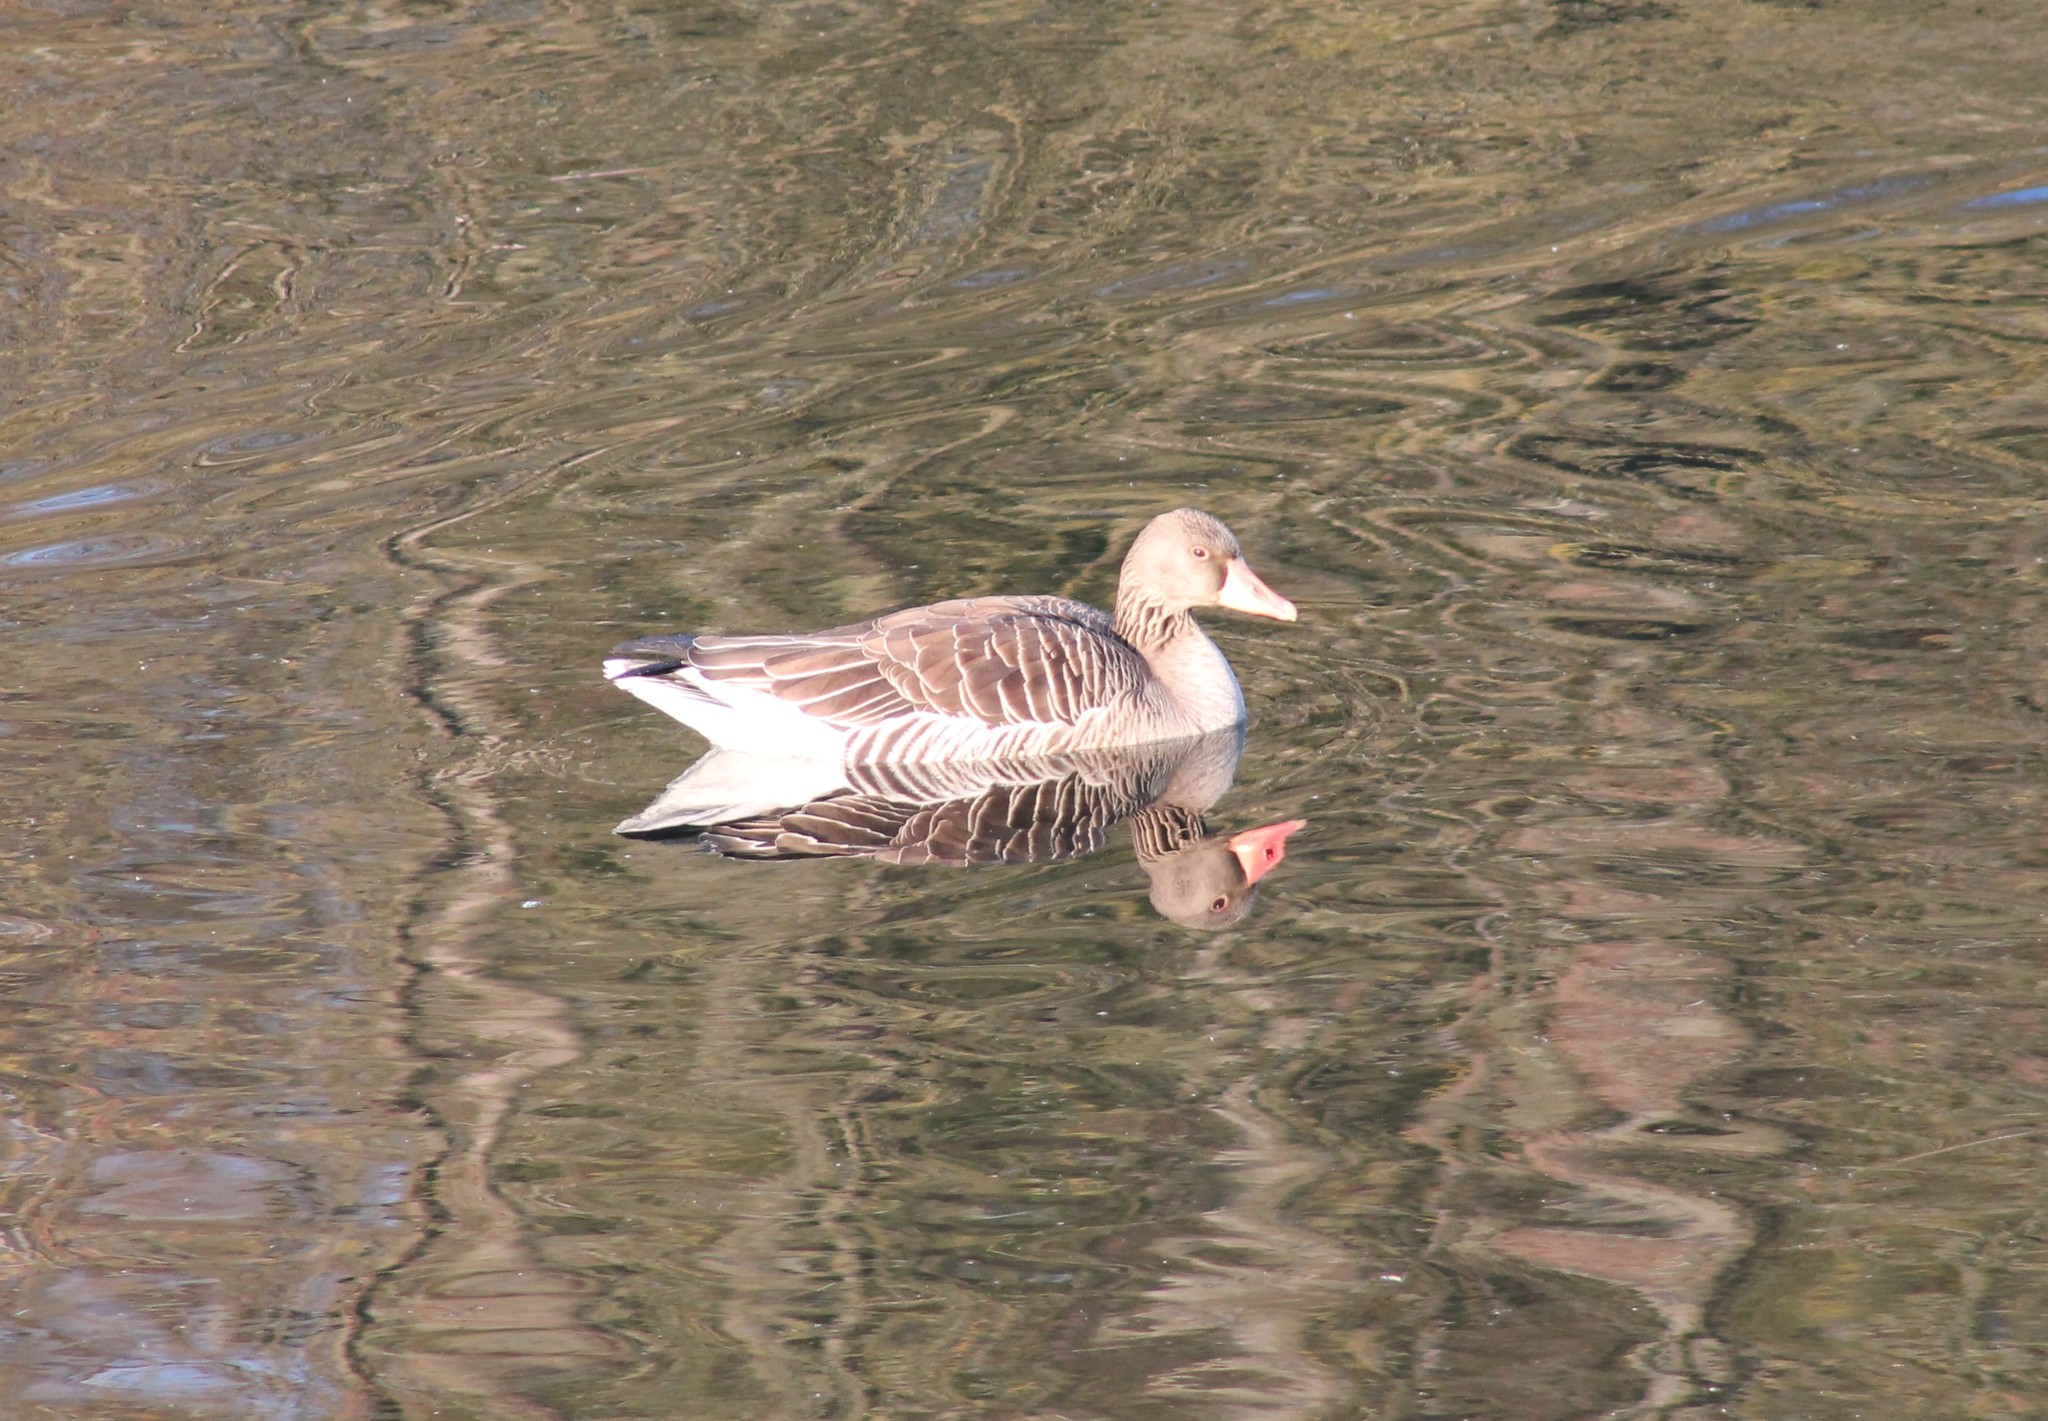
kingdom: Animalia
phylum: Chordata
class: Aves
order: Anseriformes
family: Anatidae
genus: Anser
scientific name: Anser anser
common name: Greylag goose
